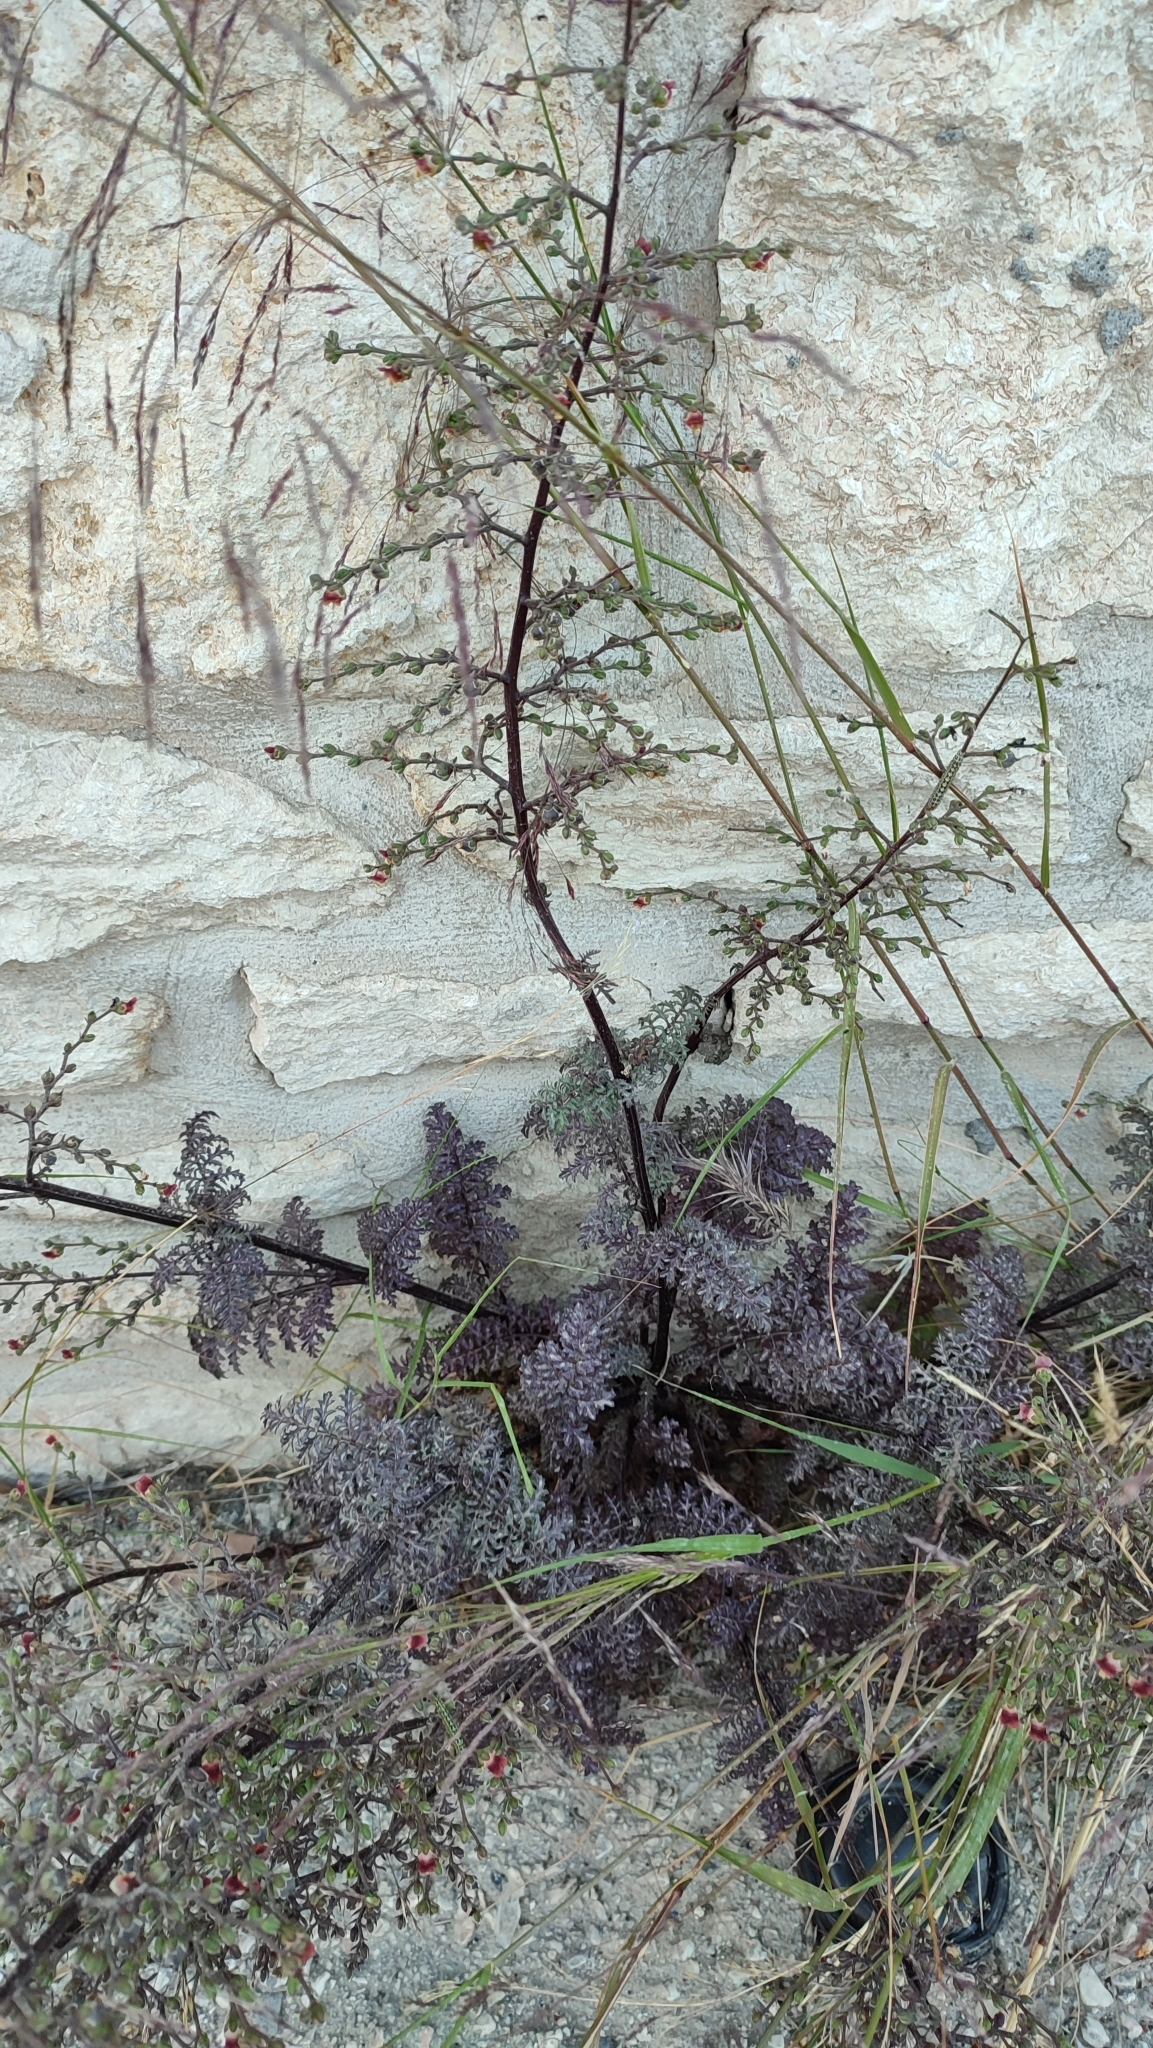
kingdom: Plantae
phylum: Tracheophyta
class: Magnoliopsida
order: Lamiales
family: Scrophulariaceae
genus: Scrophularia
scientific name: Scrophularia lucida
